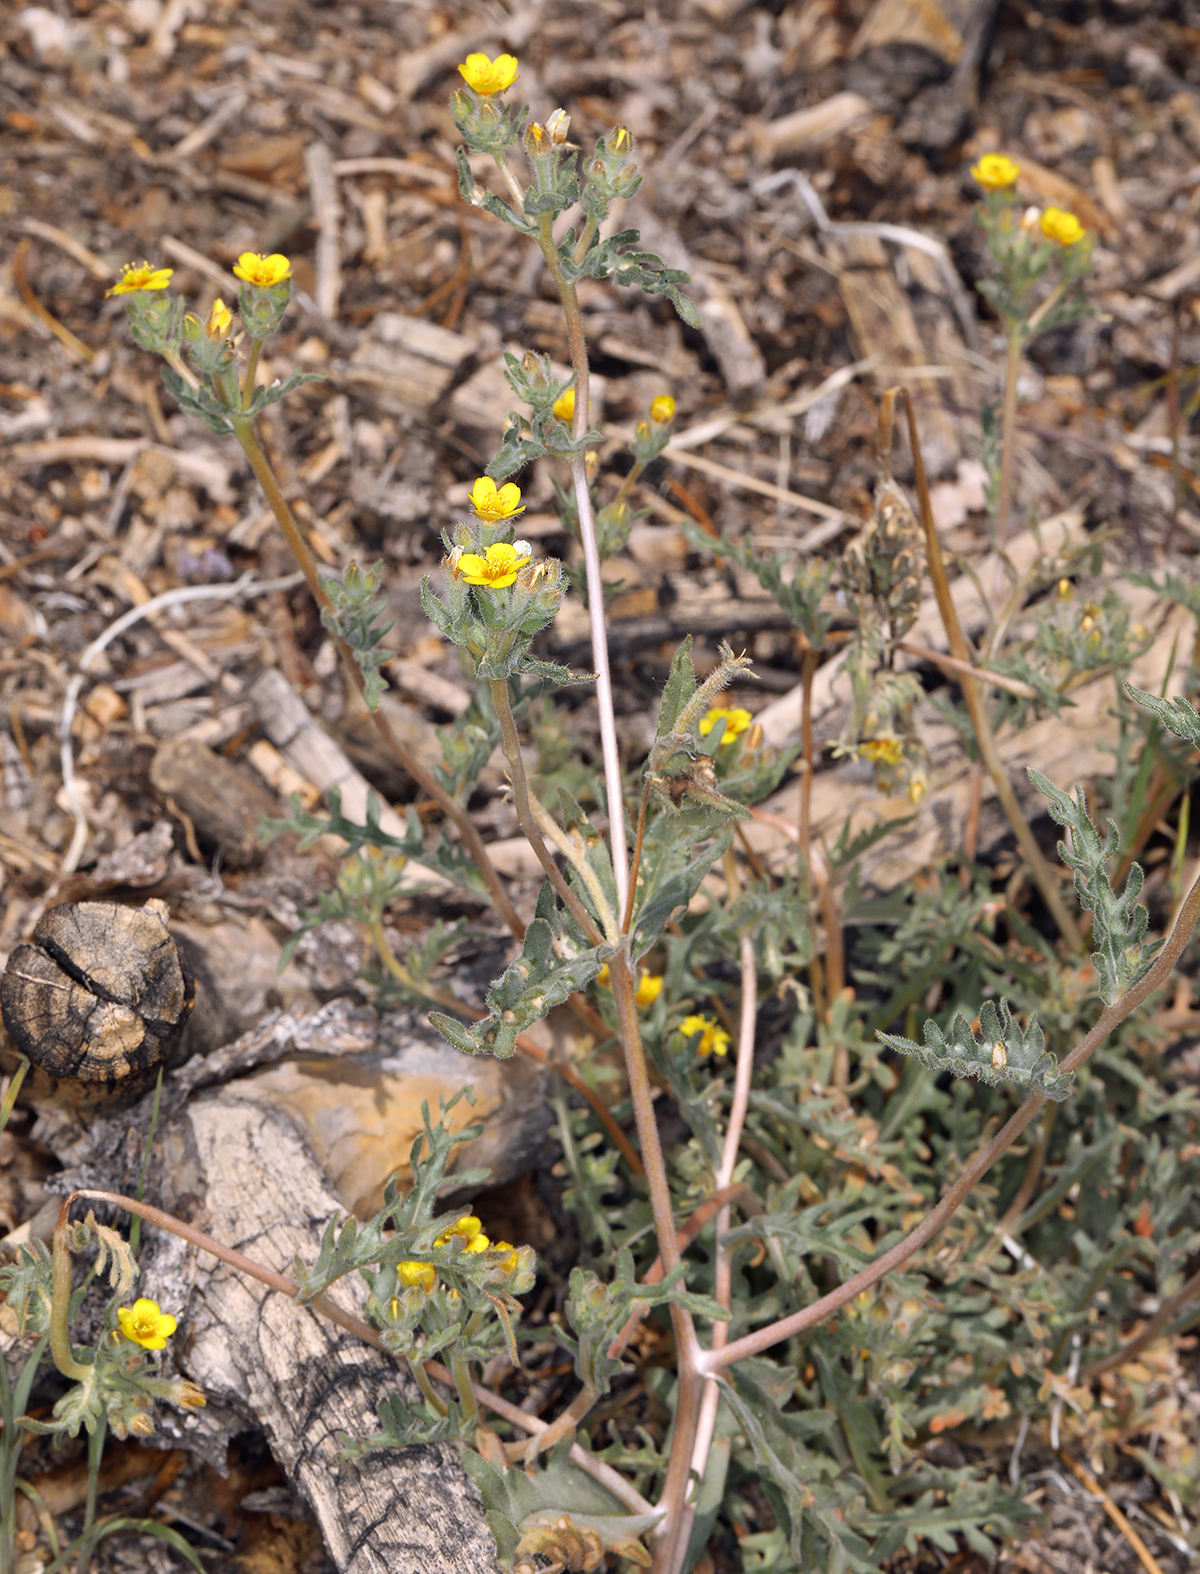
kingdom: Plantae
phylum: Tracheophyta
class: Magnoliopsida
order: Cornales
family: Loasaceae
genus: Mentzelia
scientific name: Mentzelia albicaulis
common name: White-stem blazingstar
